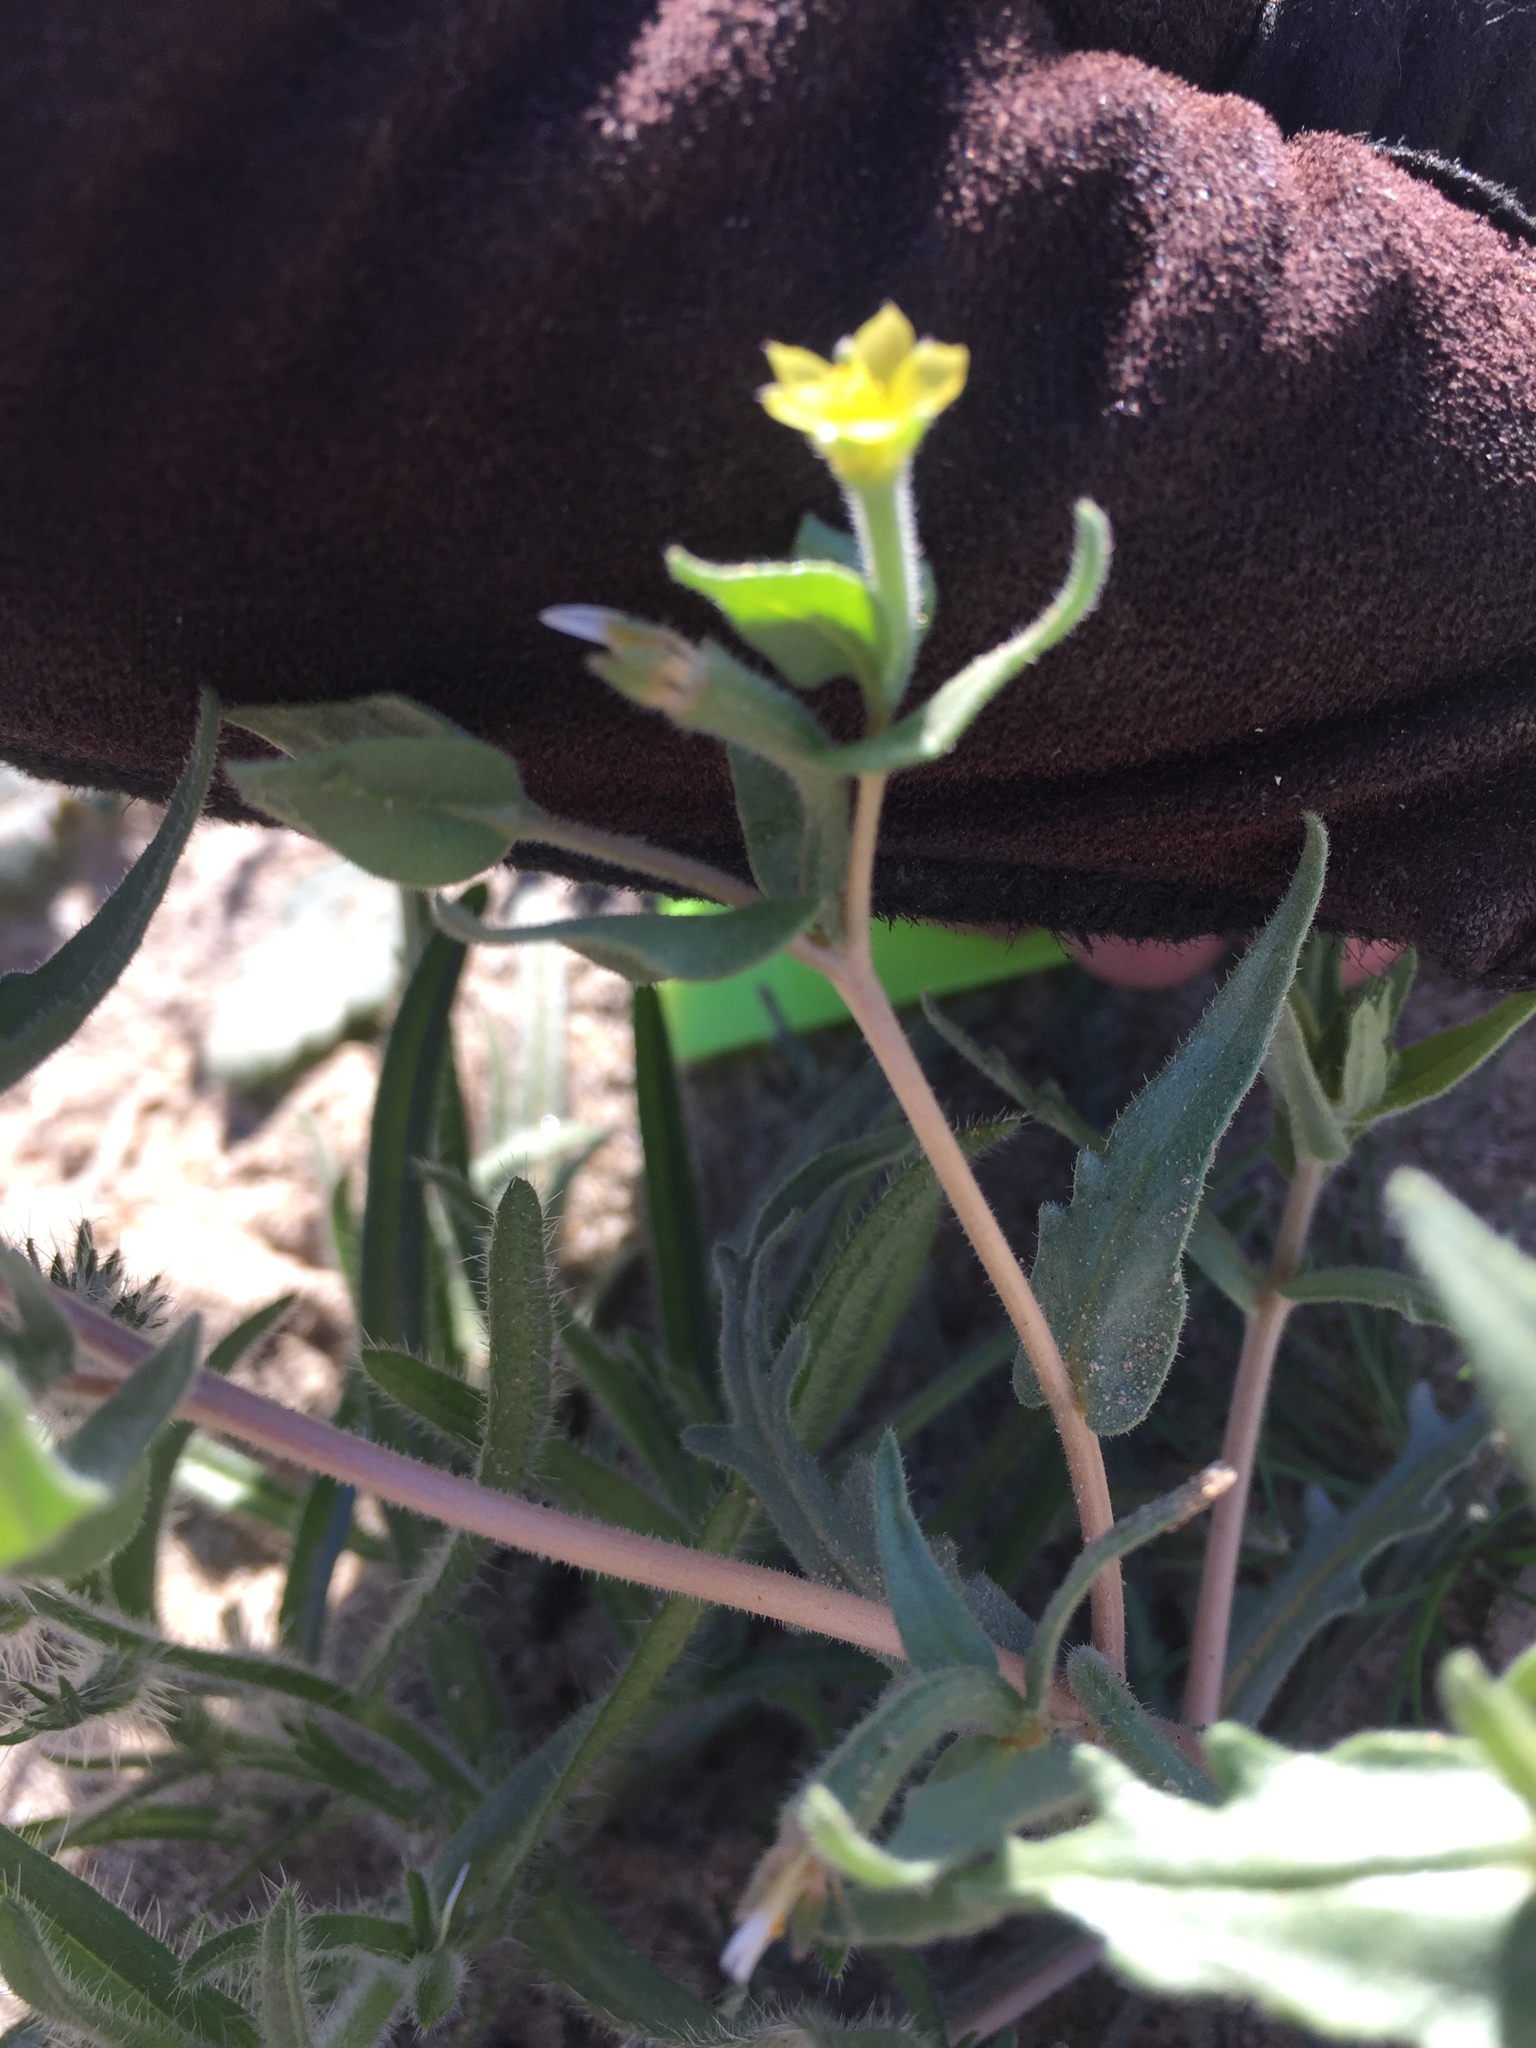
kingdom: Plantae
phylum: Tracheophyta
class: Magnoliopsida
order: Cornales
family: Loasaceae
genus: Mentzelia
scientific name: Mentzelia albicaulis
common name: White-stem blazingstar
